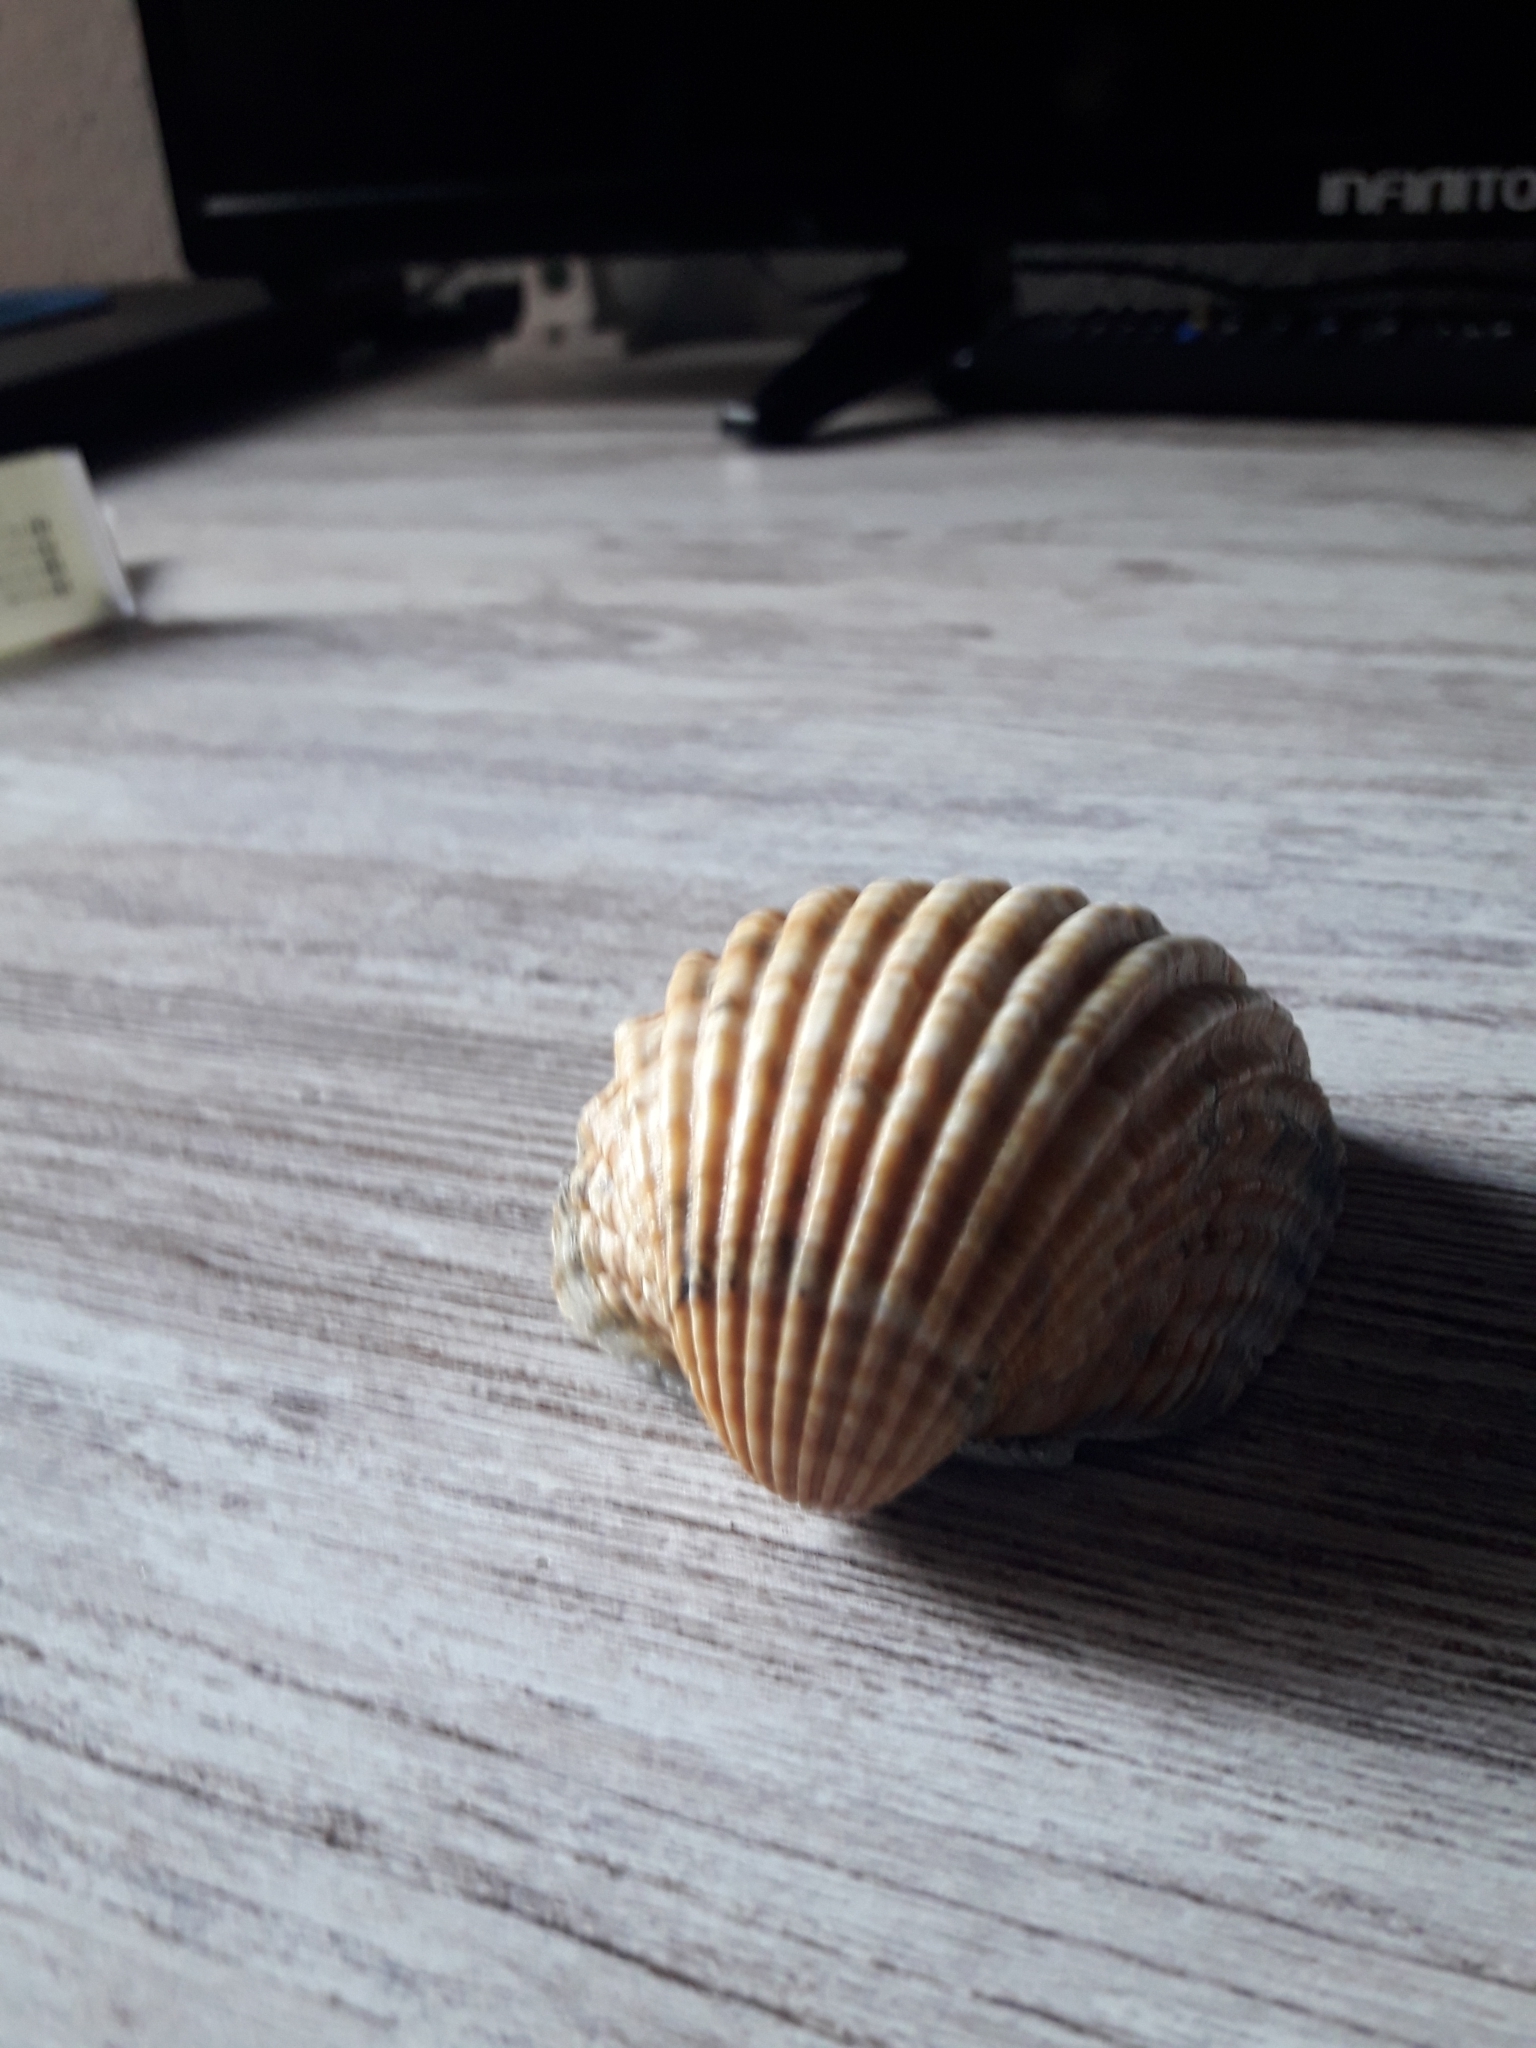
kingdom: Animalia
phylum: Mollusca
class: Bivalvia
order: Cardiida
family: Cardiidae
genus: Acanthocardia
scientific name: Acanthocardia tuberculata
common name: Rough cockle
